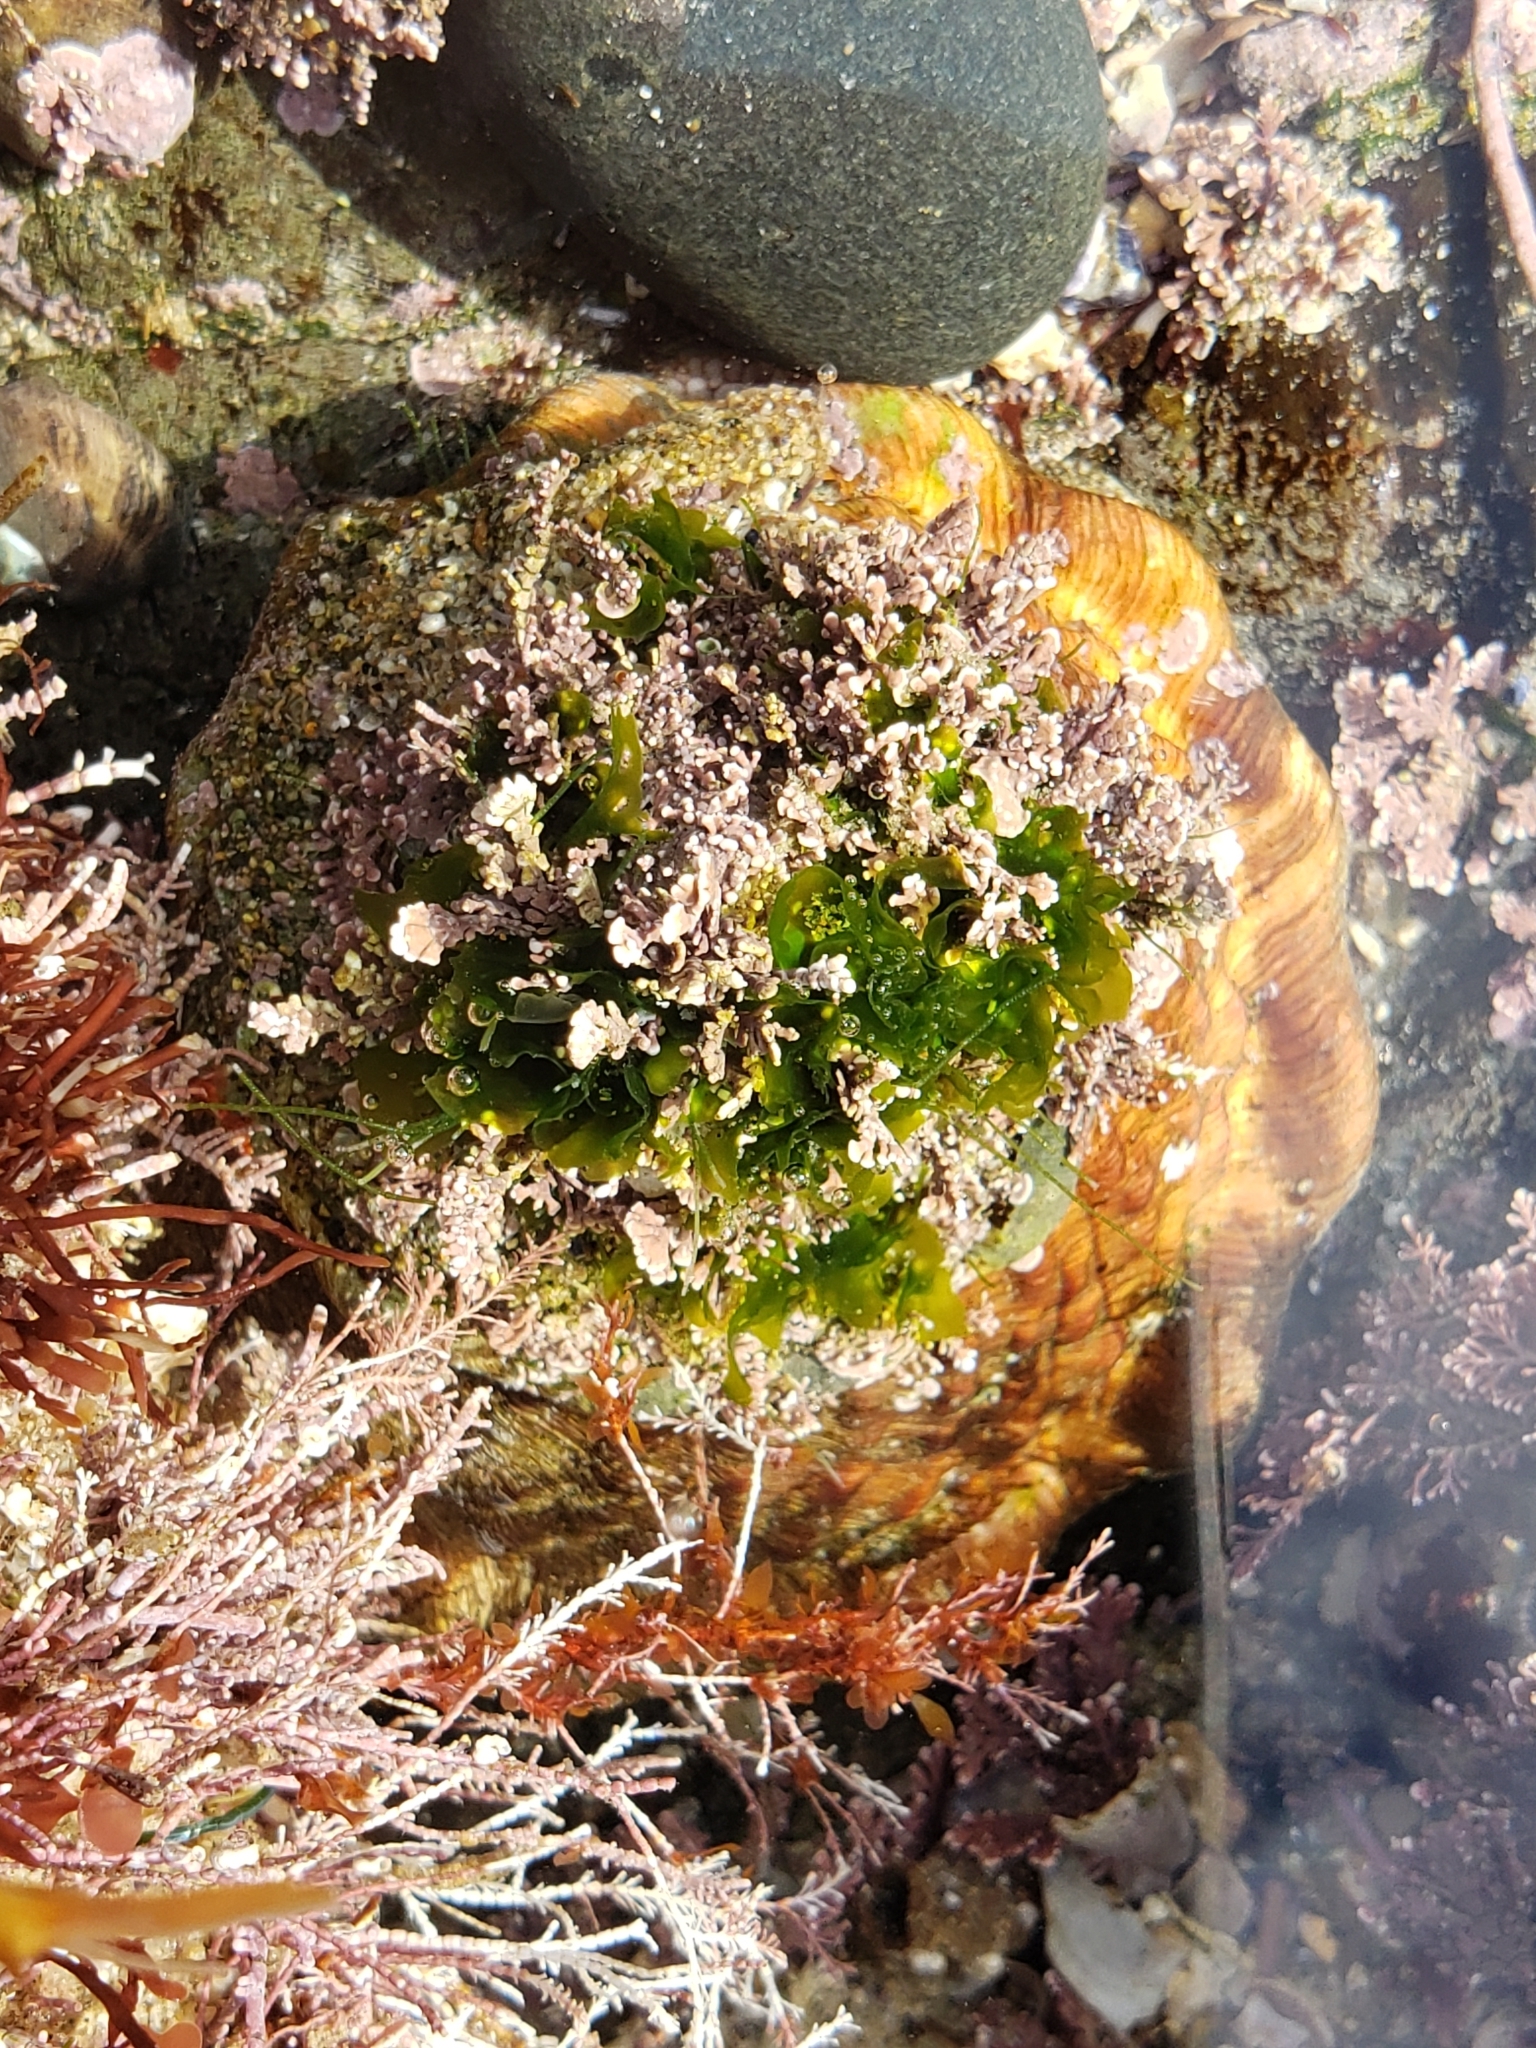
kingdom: Animalia
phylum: Mollusca
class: Gastropoda
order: Trochida
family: Turbinidae
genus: Megastraea
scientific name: Megastraea undosa
